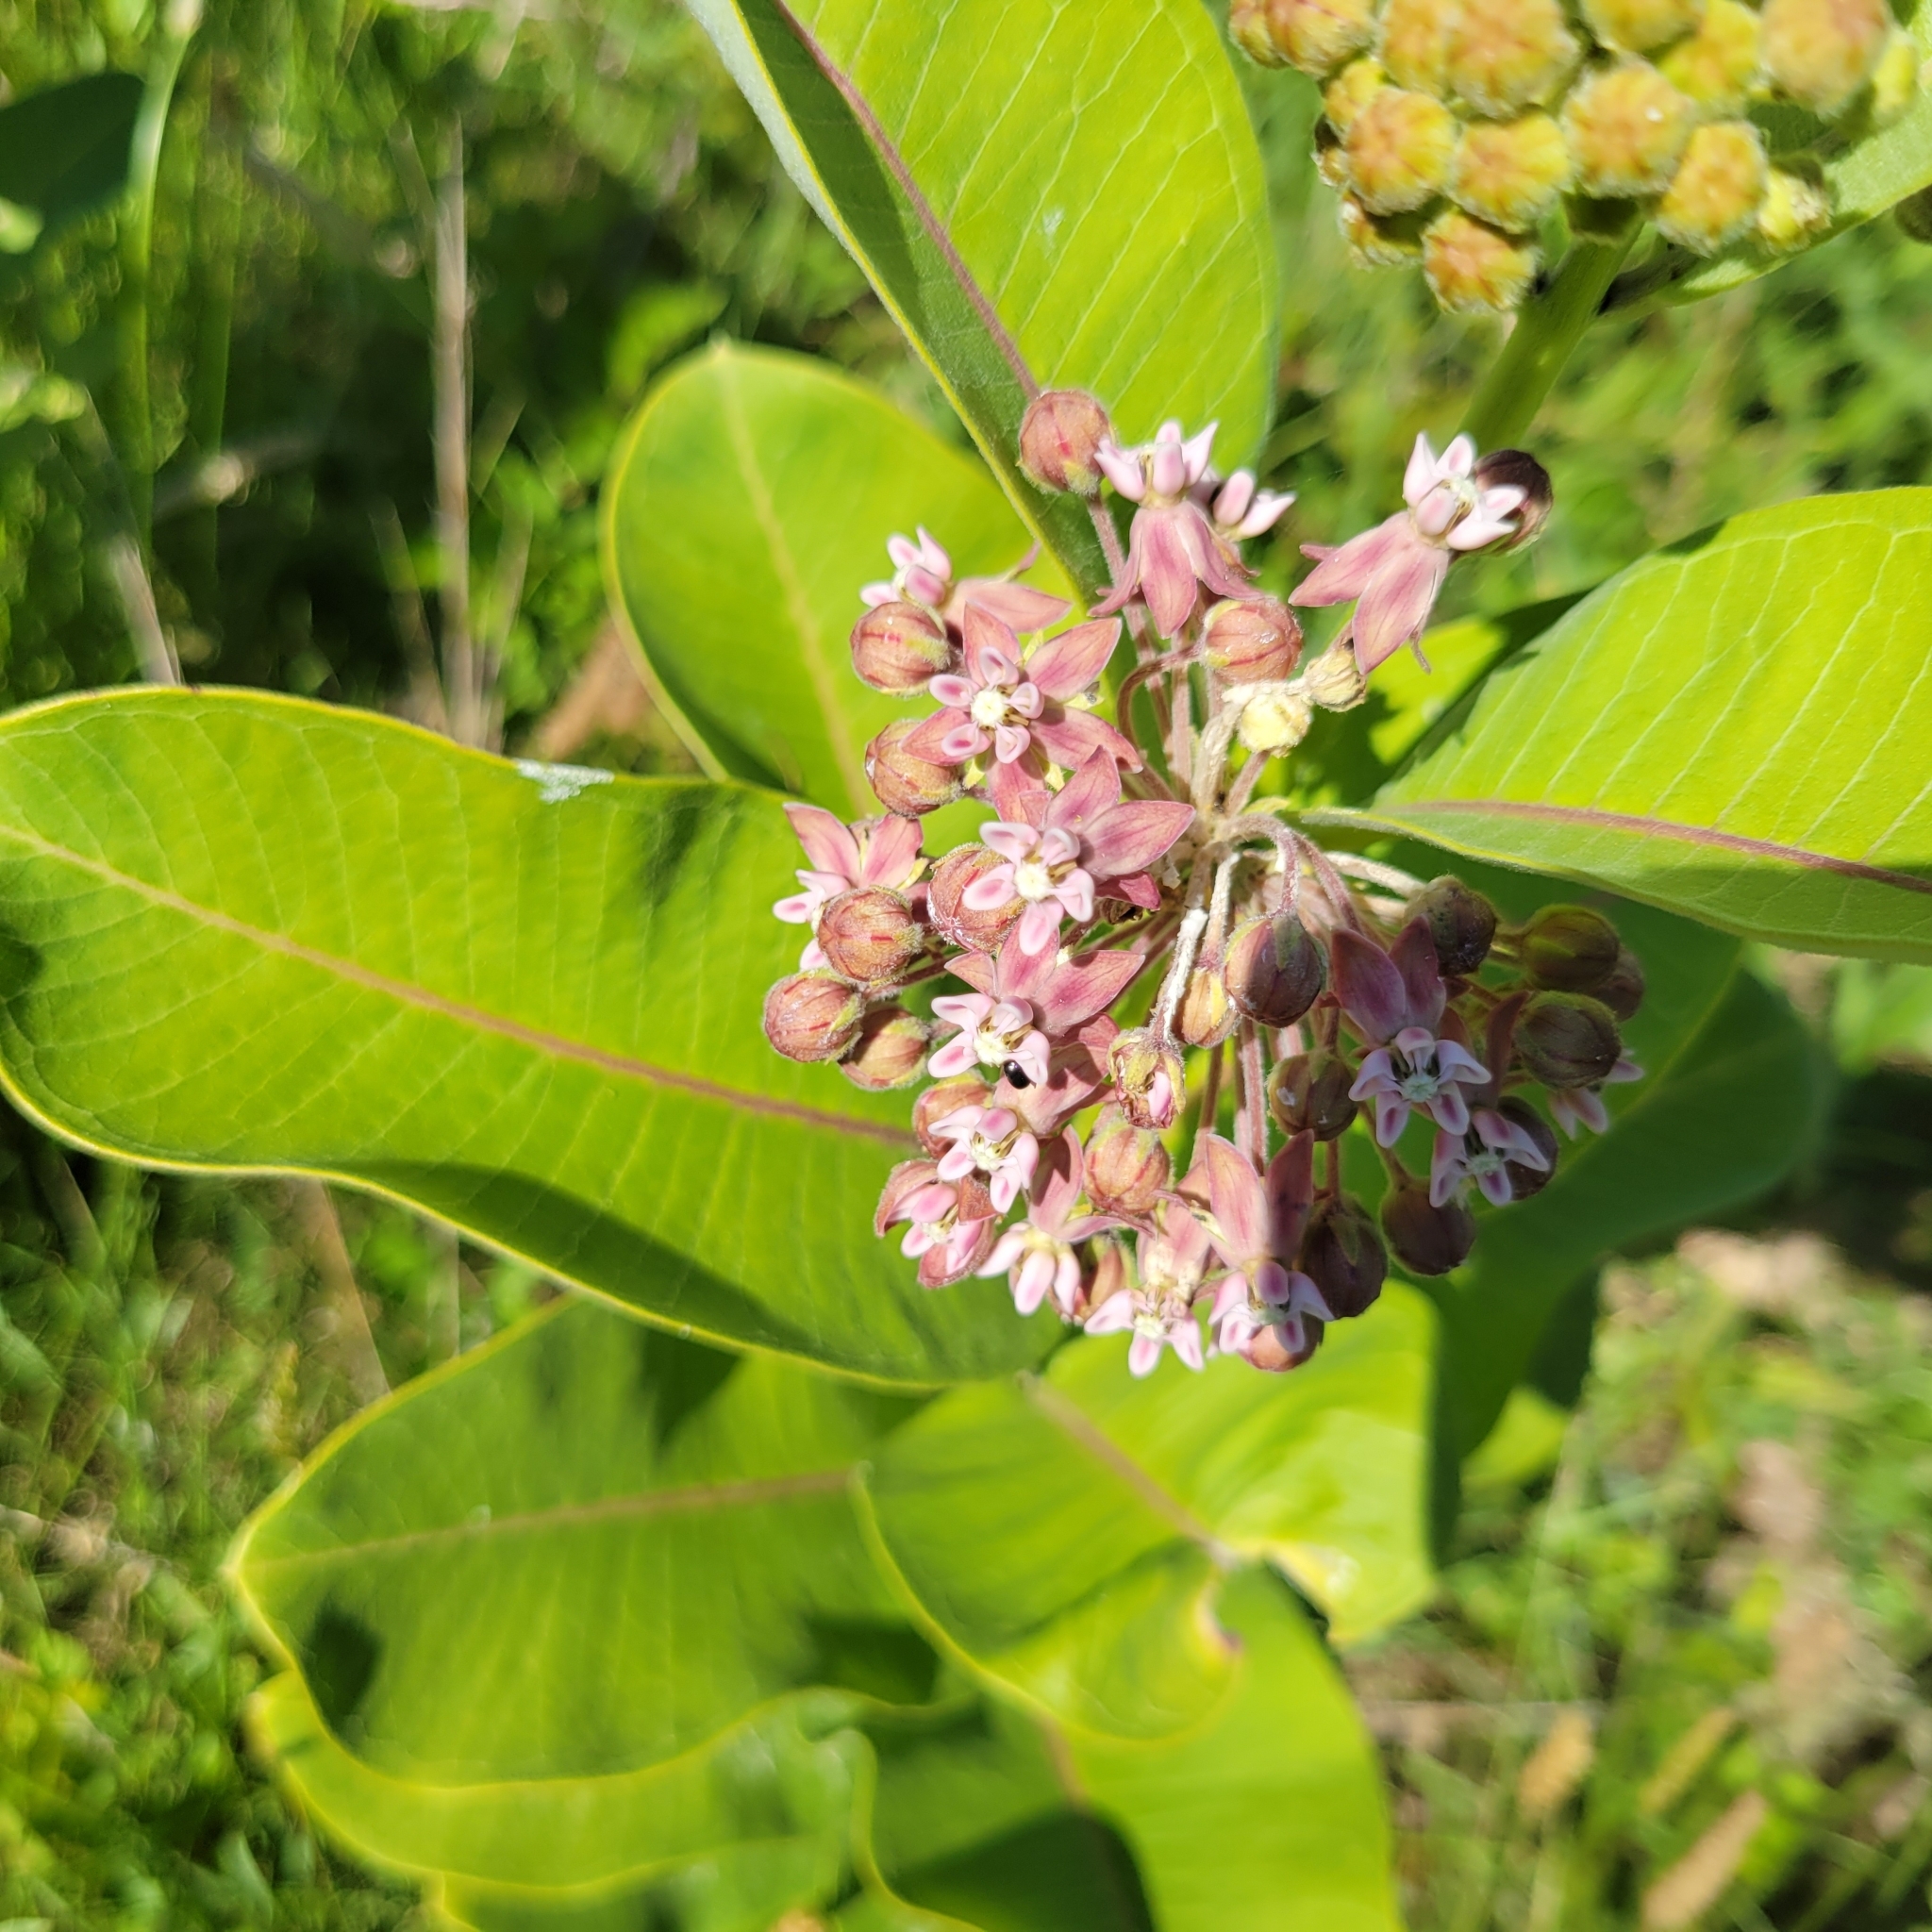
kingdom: Plantae
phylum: Tracheophyta
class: Magnoliopsida
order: Gentianales
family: Apocynaceae
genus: Asclepias
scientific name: Asclepias syriaca
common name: Common milkweed
